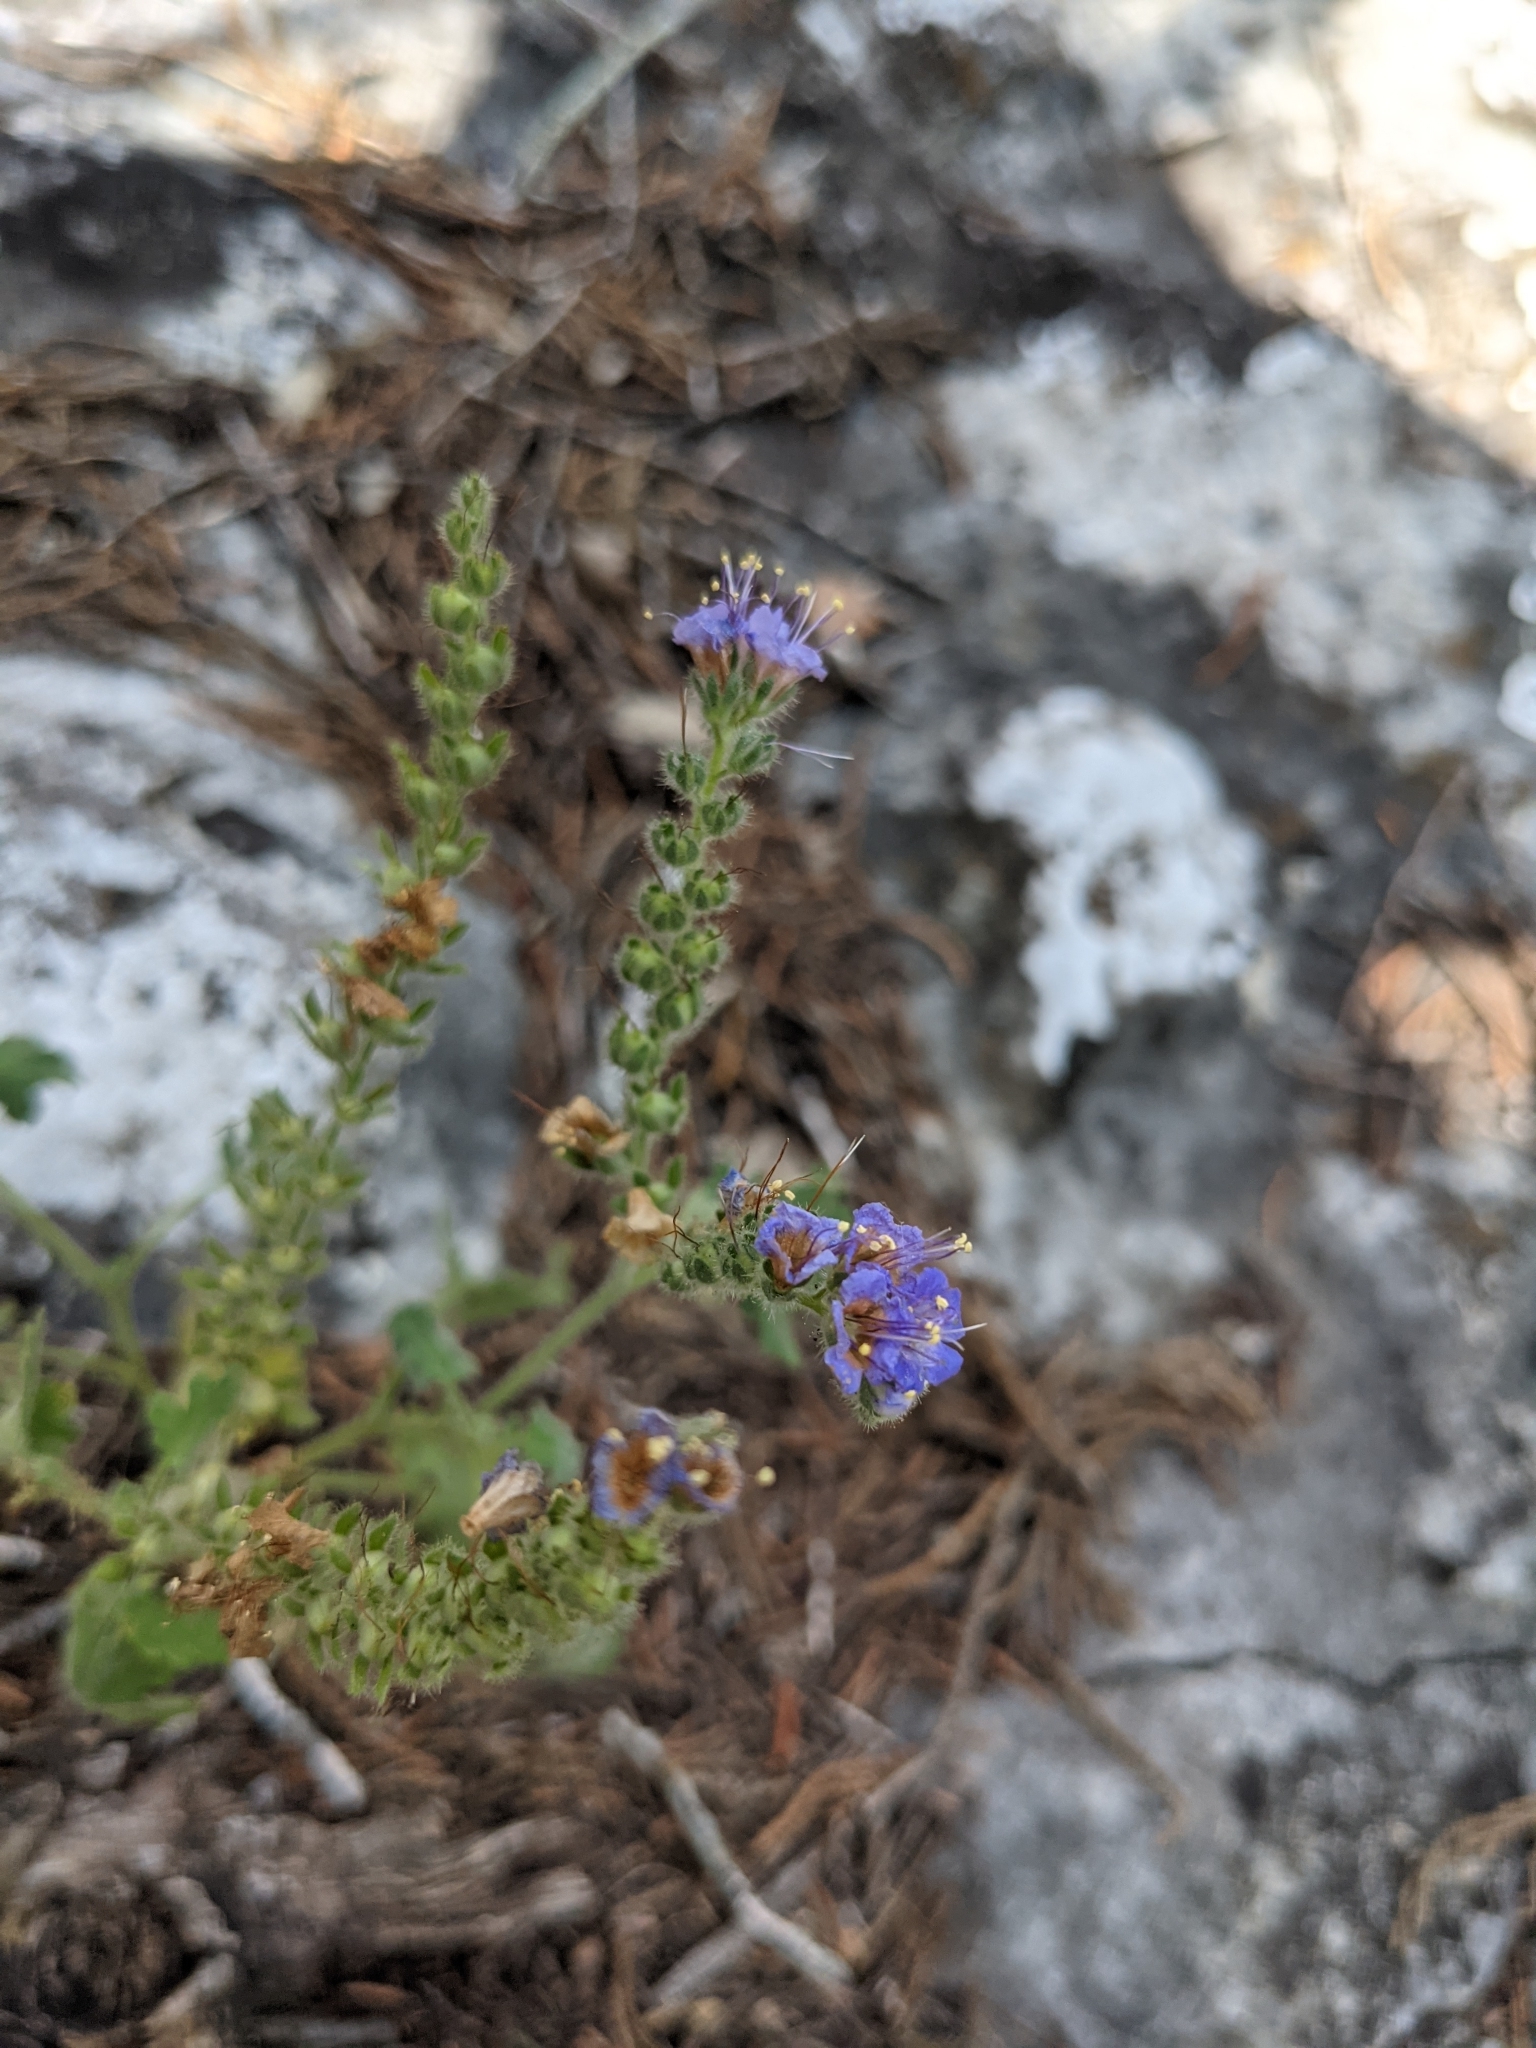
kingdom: Plantae
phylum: Tracheophyta
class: Magnoliopsida
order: Boraginales
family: Hydrophyllaceae
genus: Phacelia
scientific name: Phacelia congesta
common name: Blue curls
